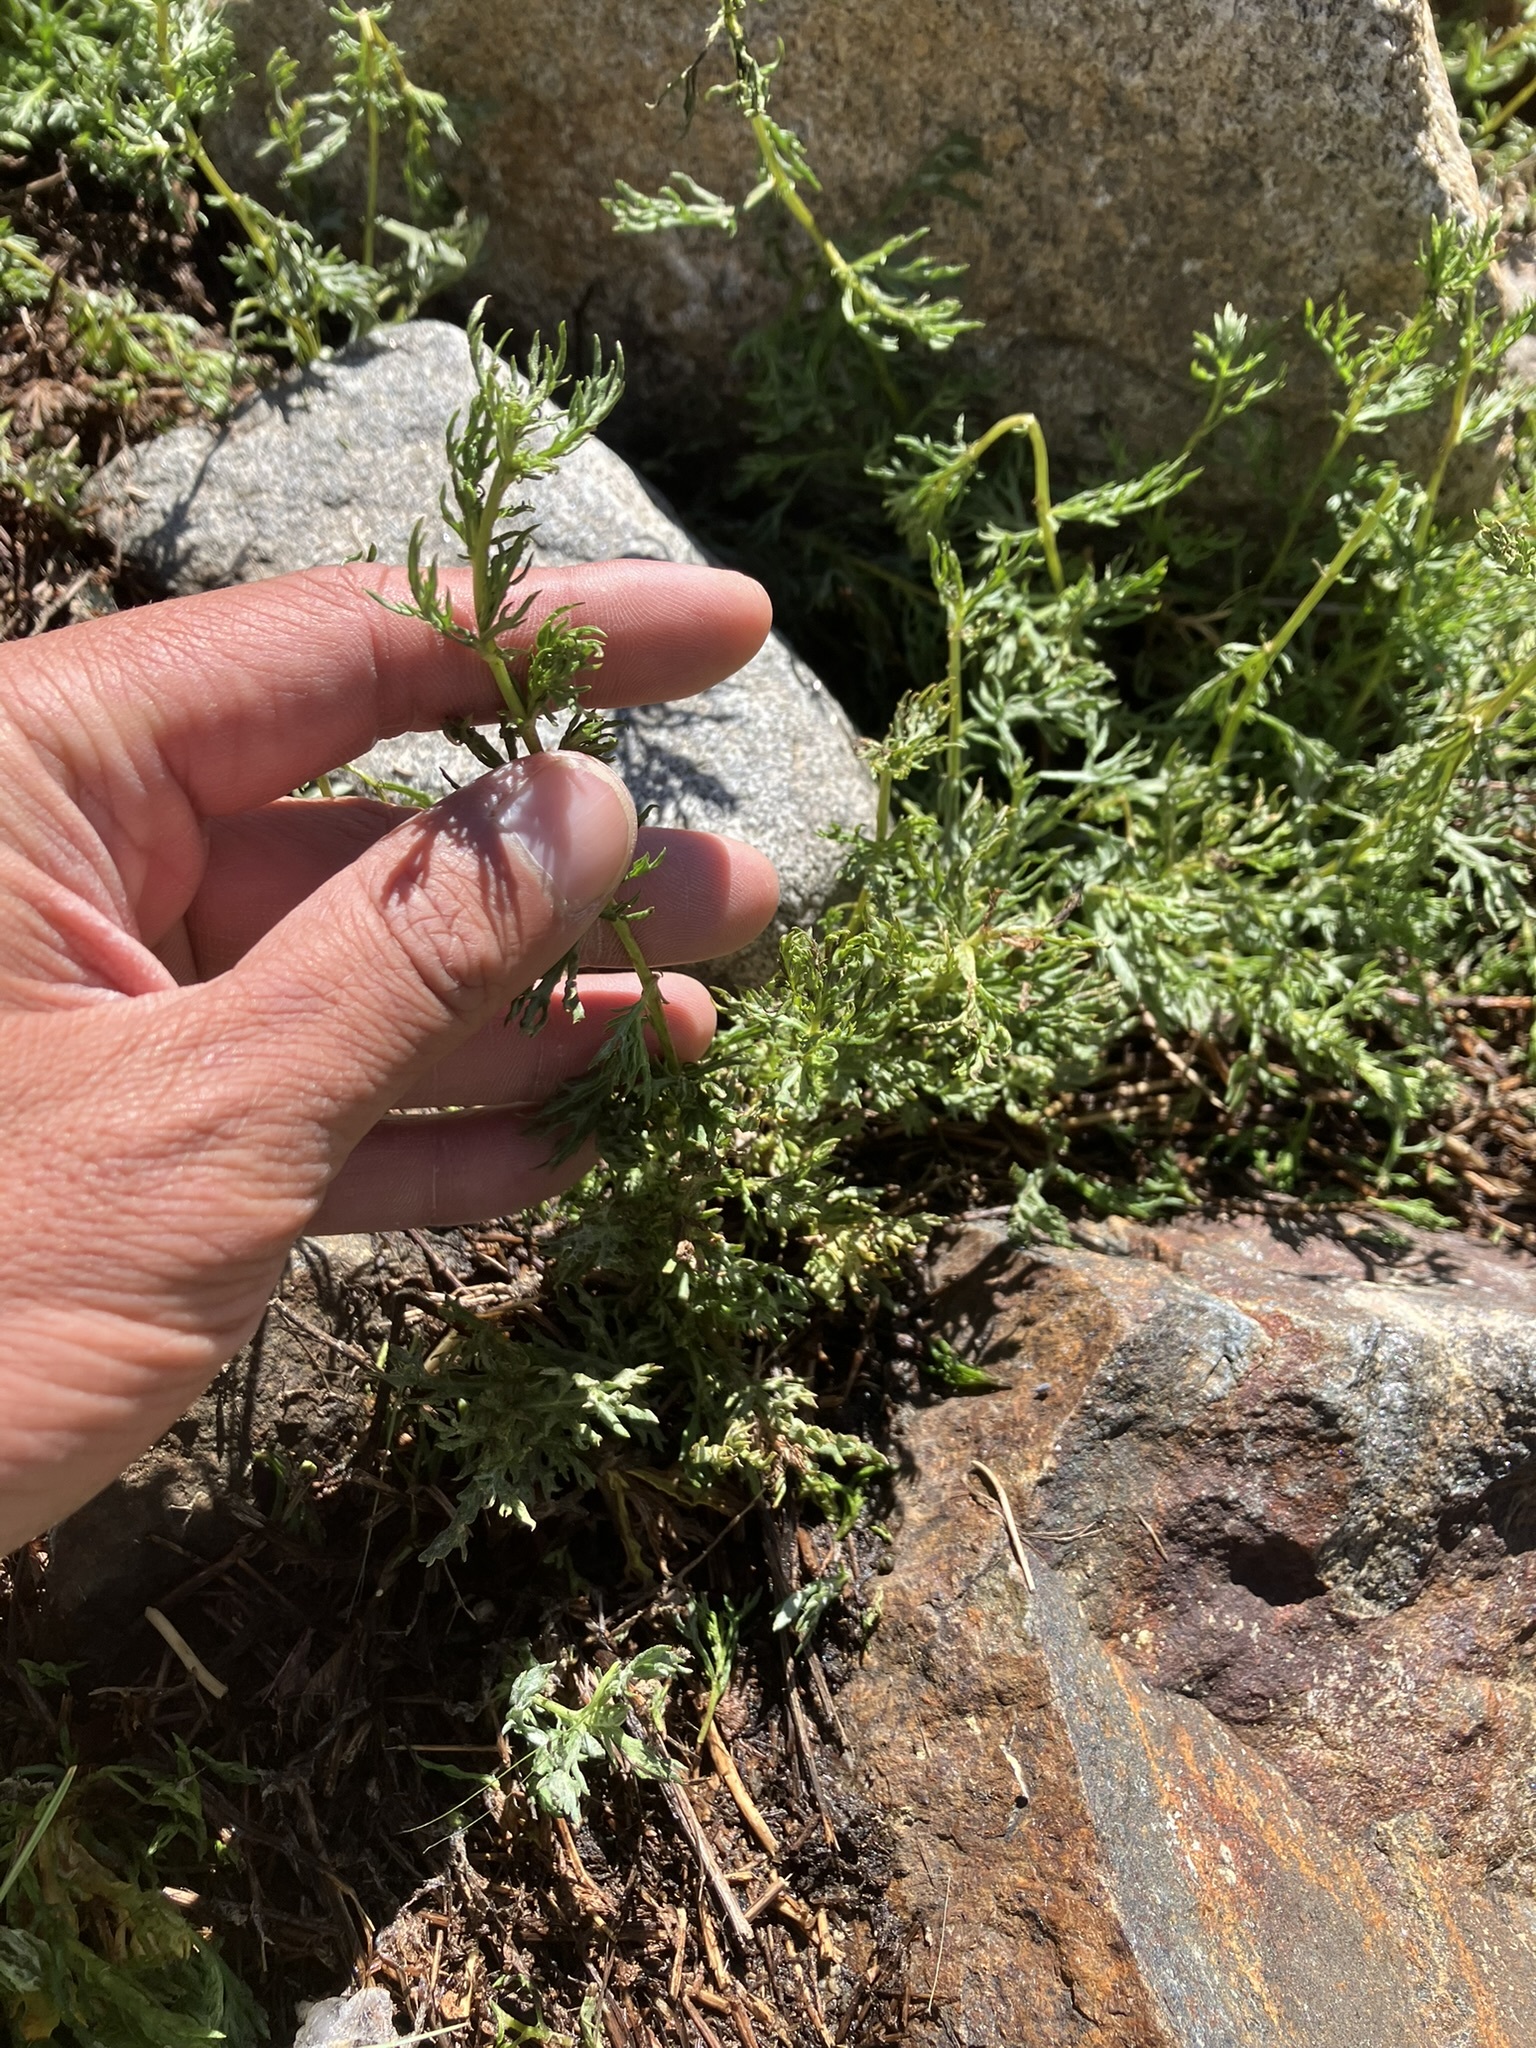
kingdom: Plantae
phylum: Tracheophyta
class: Magnoliopsida
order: Asterales
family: Asteraceae
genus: Artemisia
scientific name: Artemisia michauxiana
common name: Lemon sagewort
